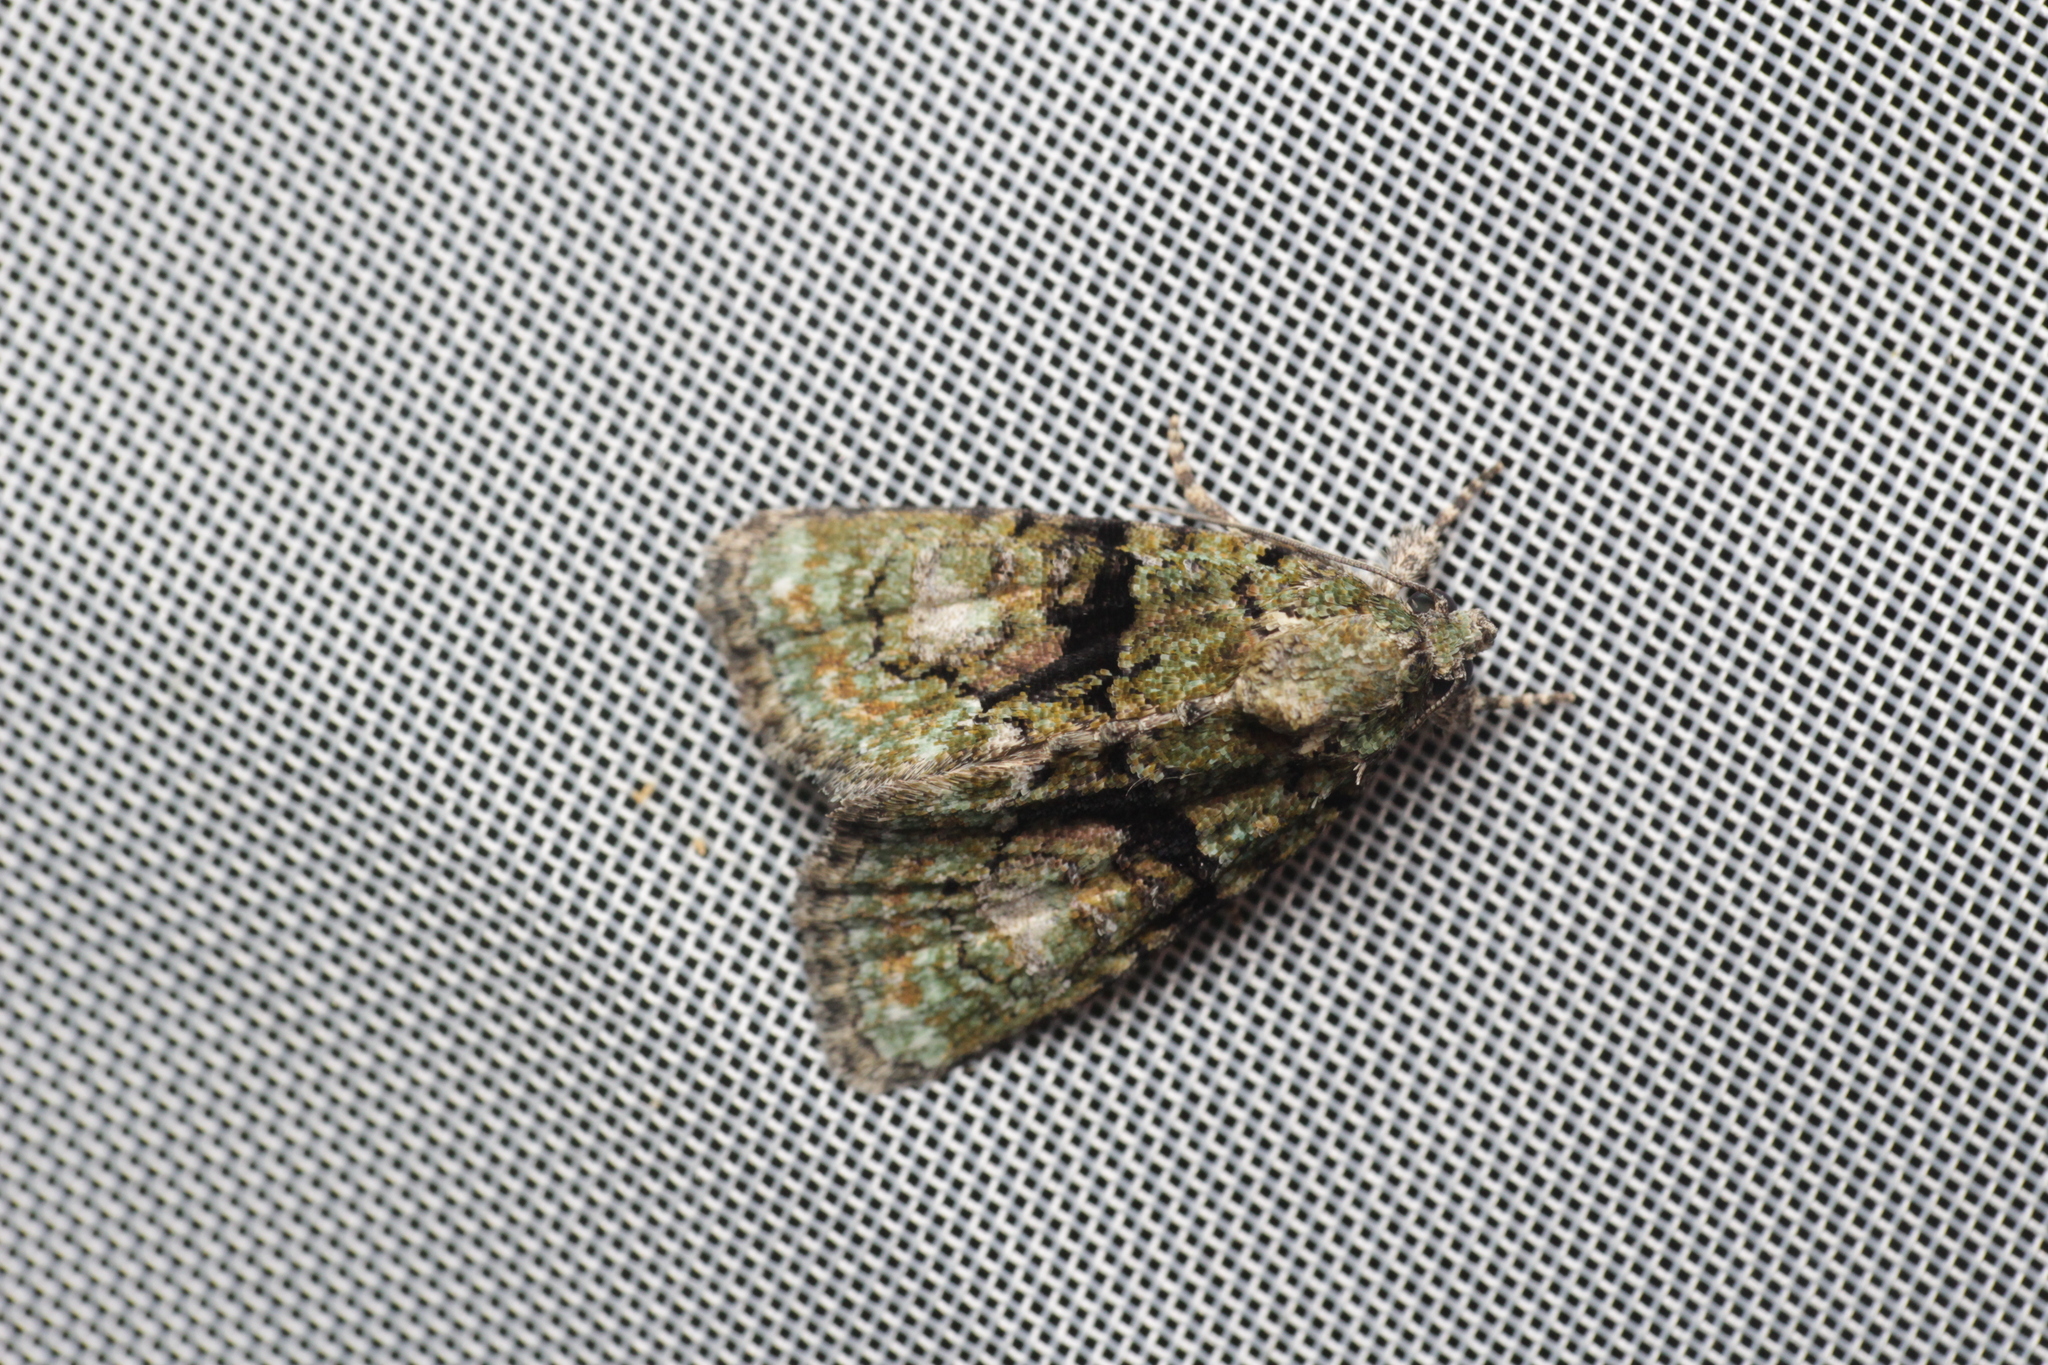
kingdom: Animalia
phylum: Arthropoda
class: Insecta
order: Lepidoptera
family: Noctuidae
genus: Cryphia
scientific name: Cryphia algae
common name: Tree-lichen beauty
